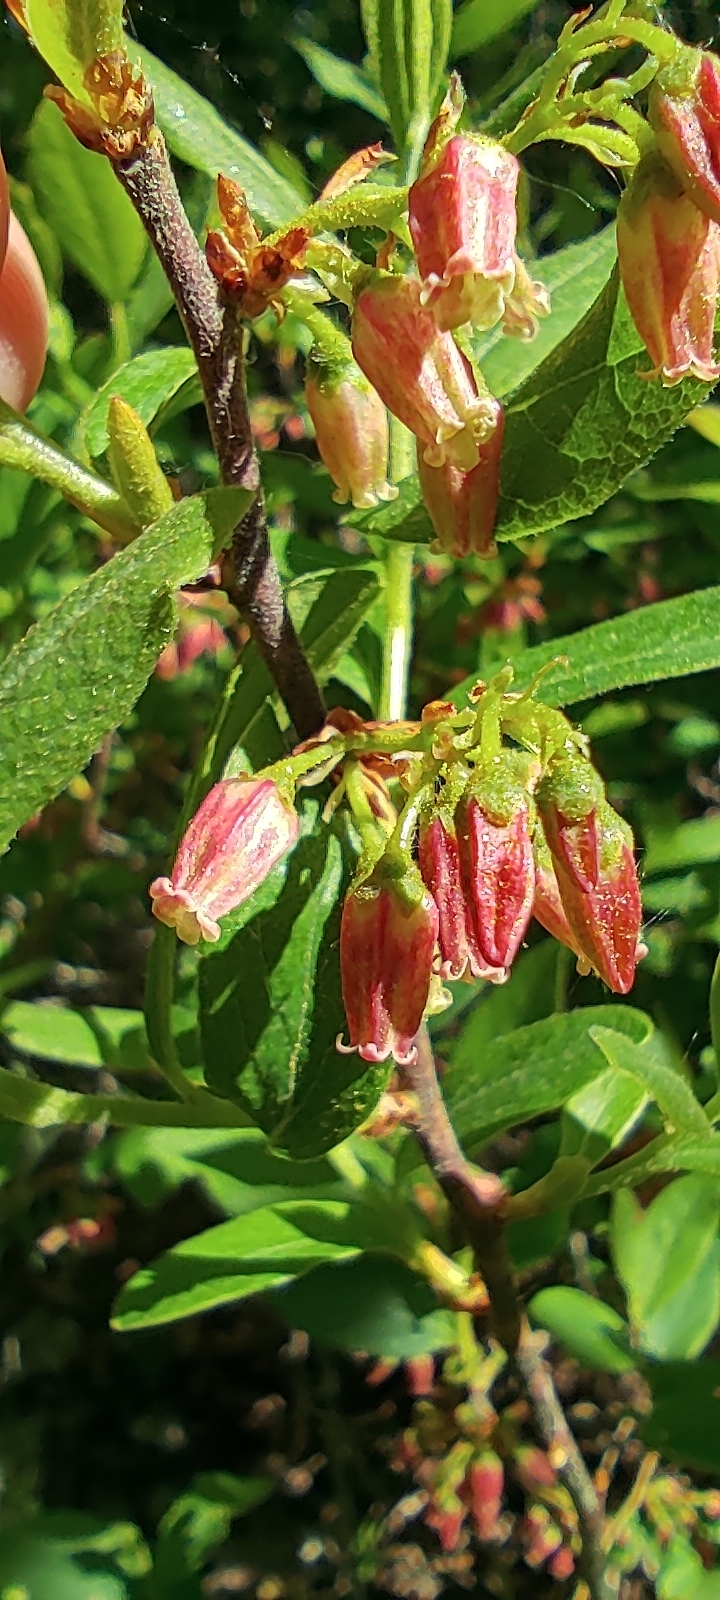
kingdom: Plantae
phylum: Tracheophyta
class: Magnoliopsida
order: Ericales
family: Ericaceae
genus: Gaylussacia
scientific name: Gaylussacia baccata
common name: Black huckleberry
